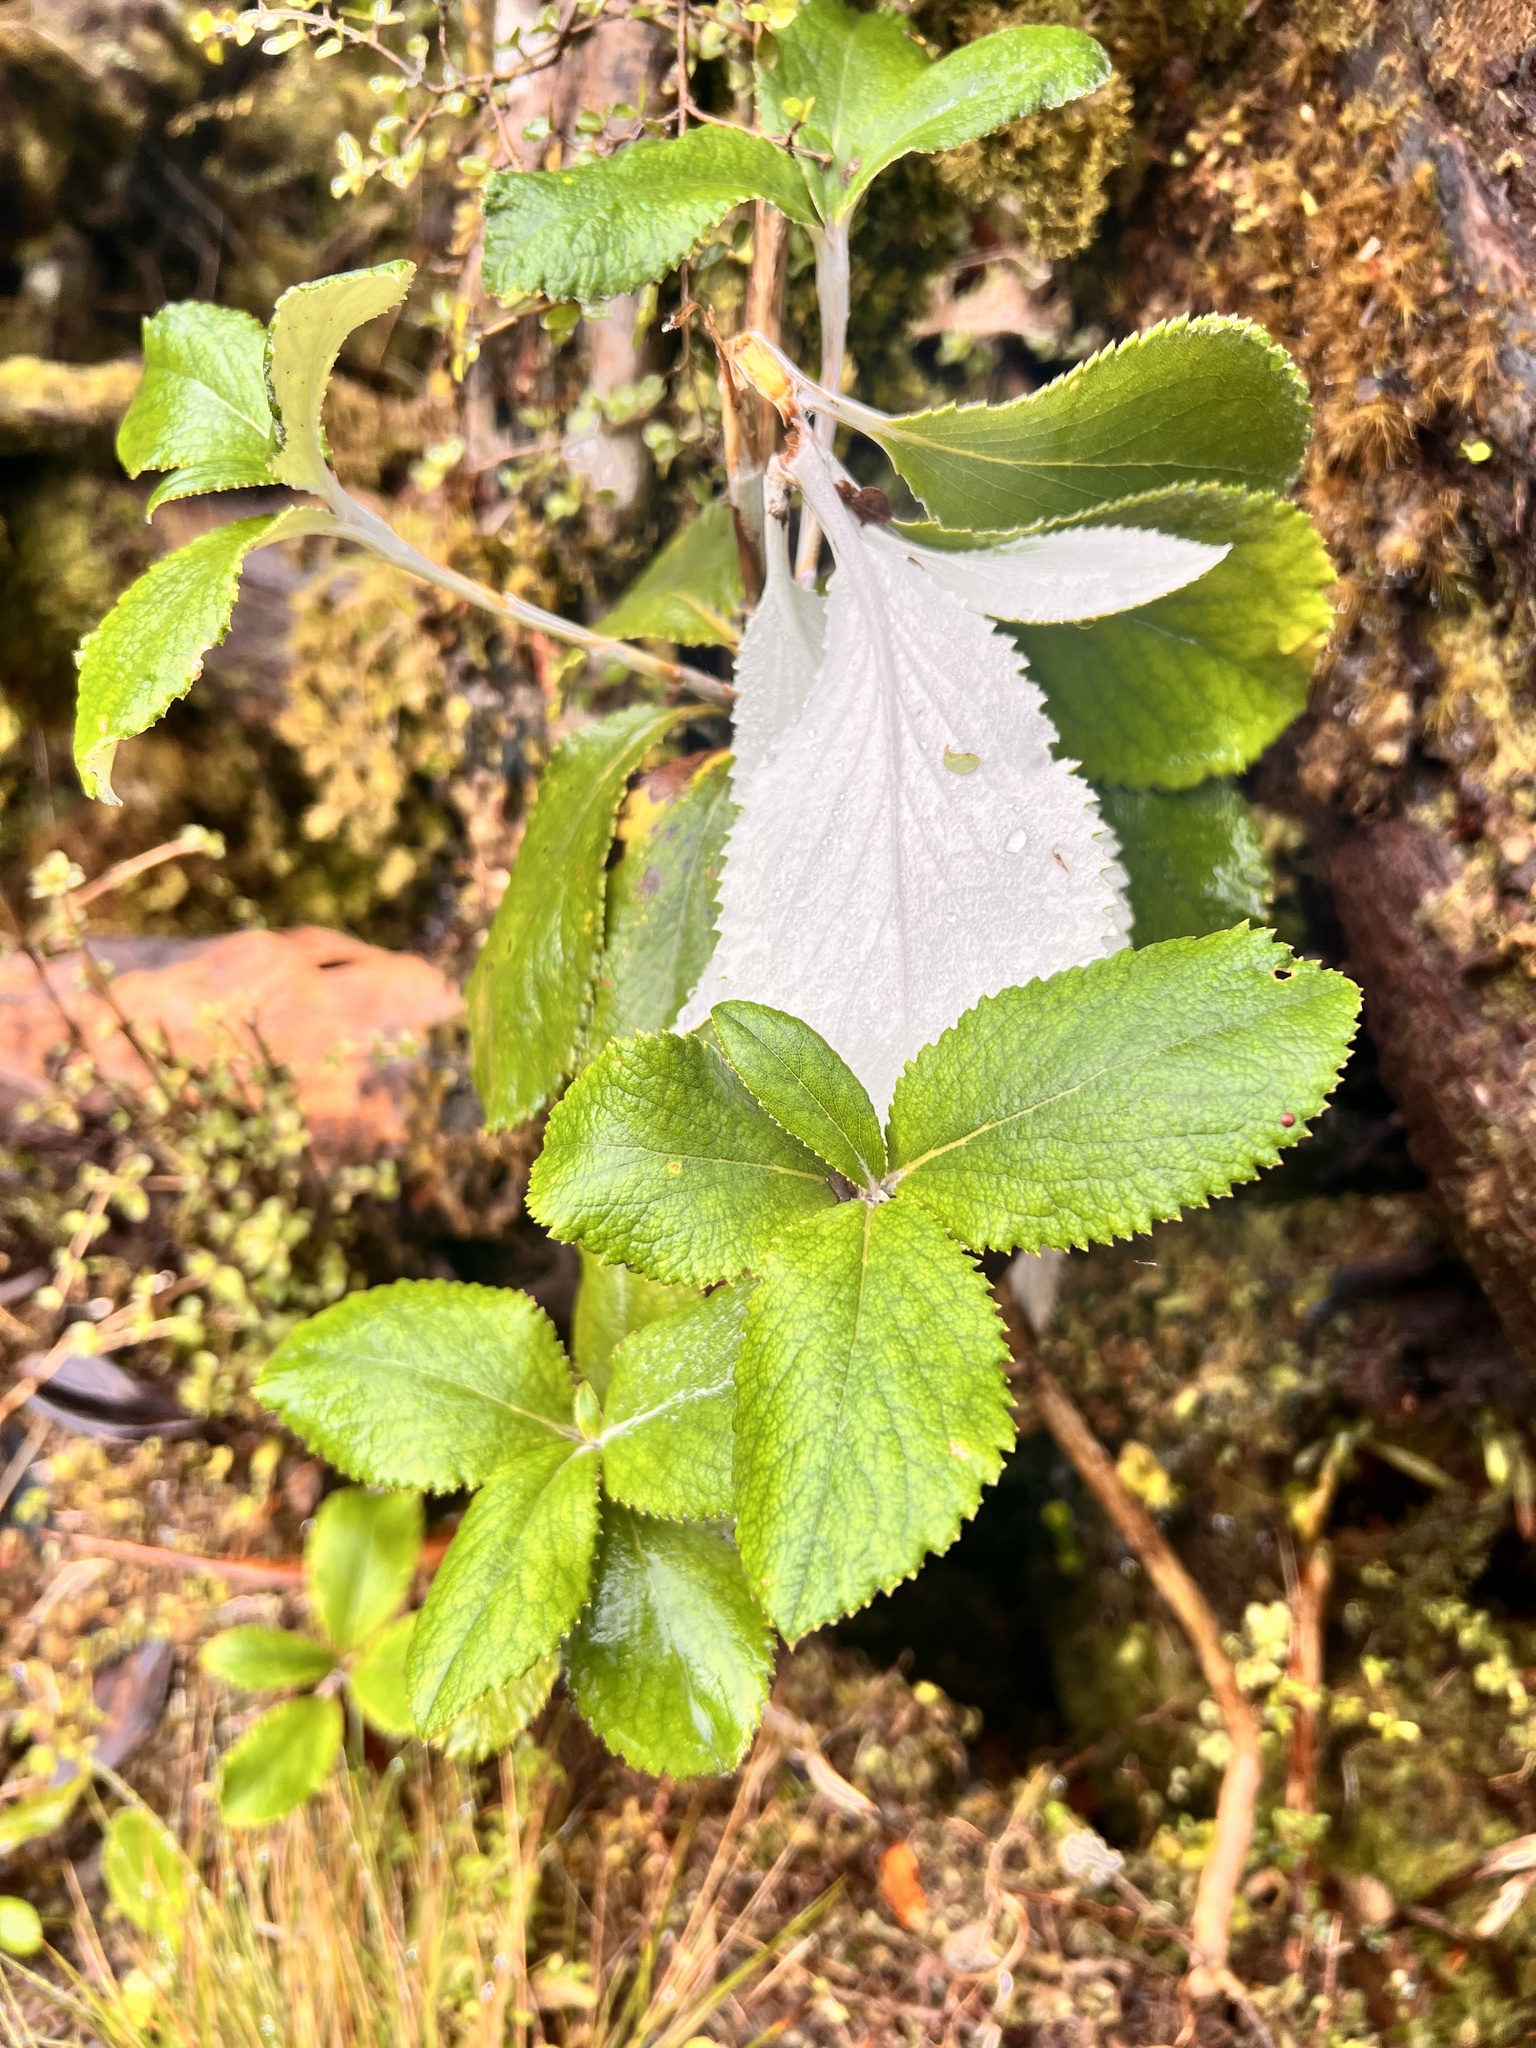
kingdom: Plantae
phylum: Tracheophyta
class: Magnoliopsida
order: Asterales
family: Asteraceae
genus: Macrolearia
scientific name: Macrolearia colensoi
